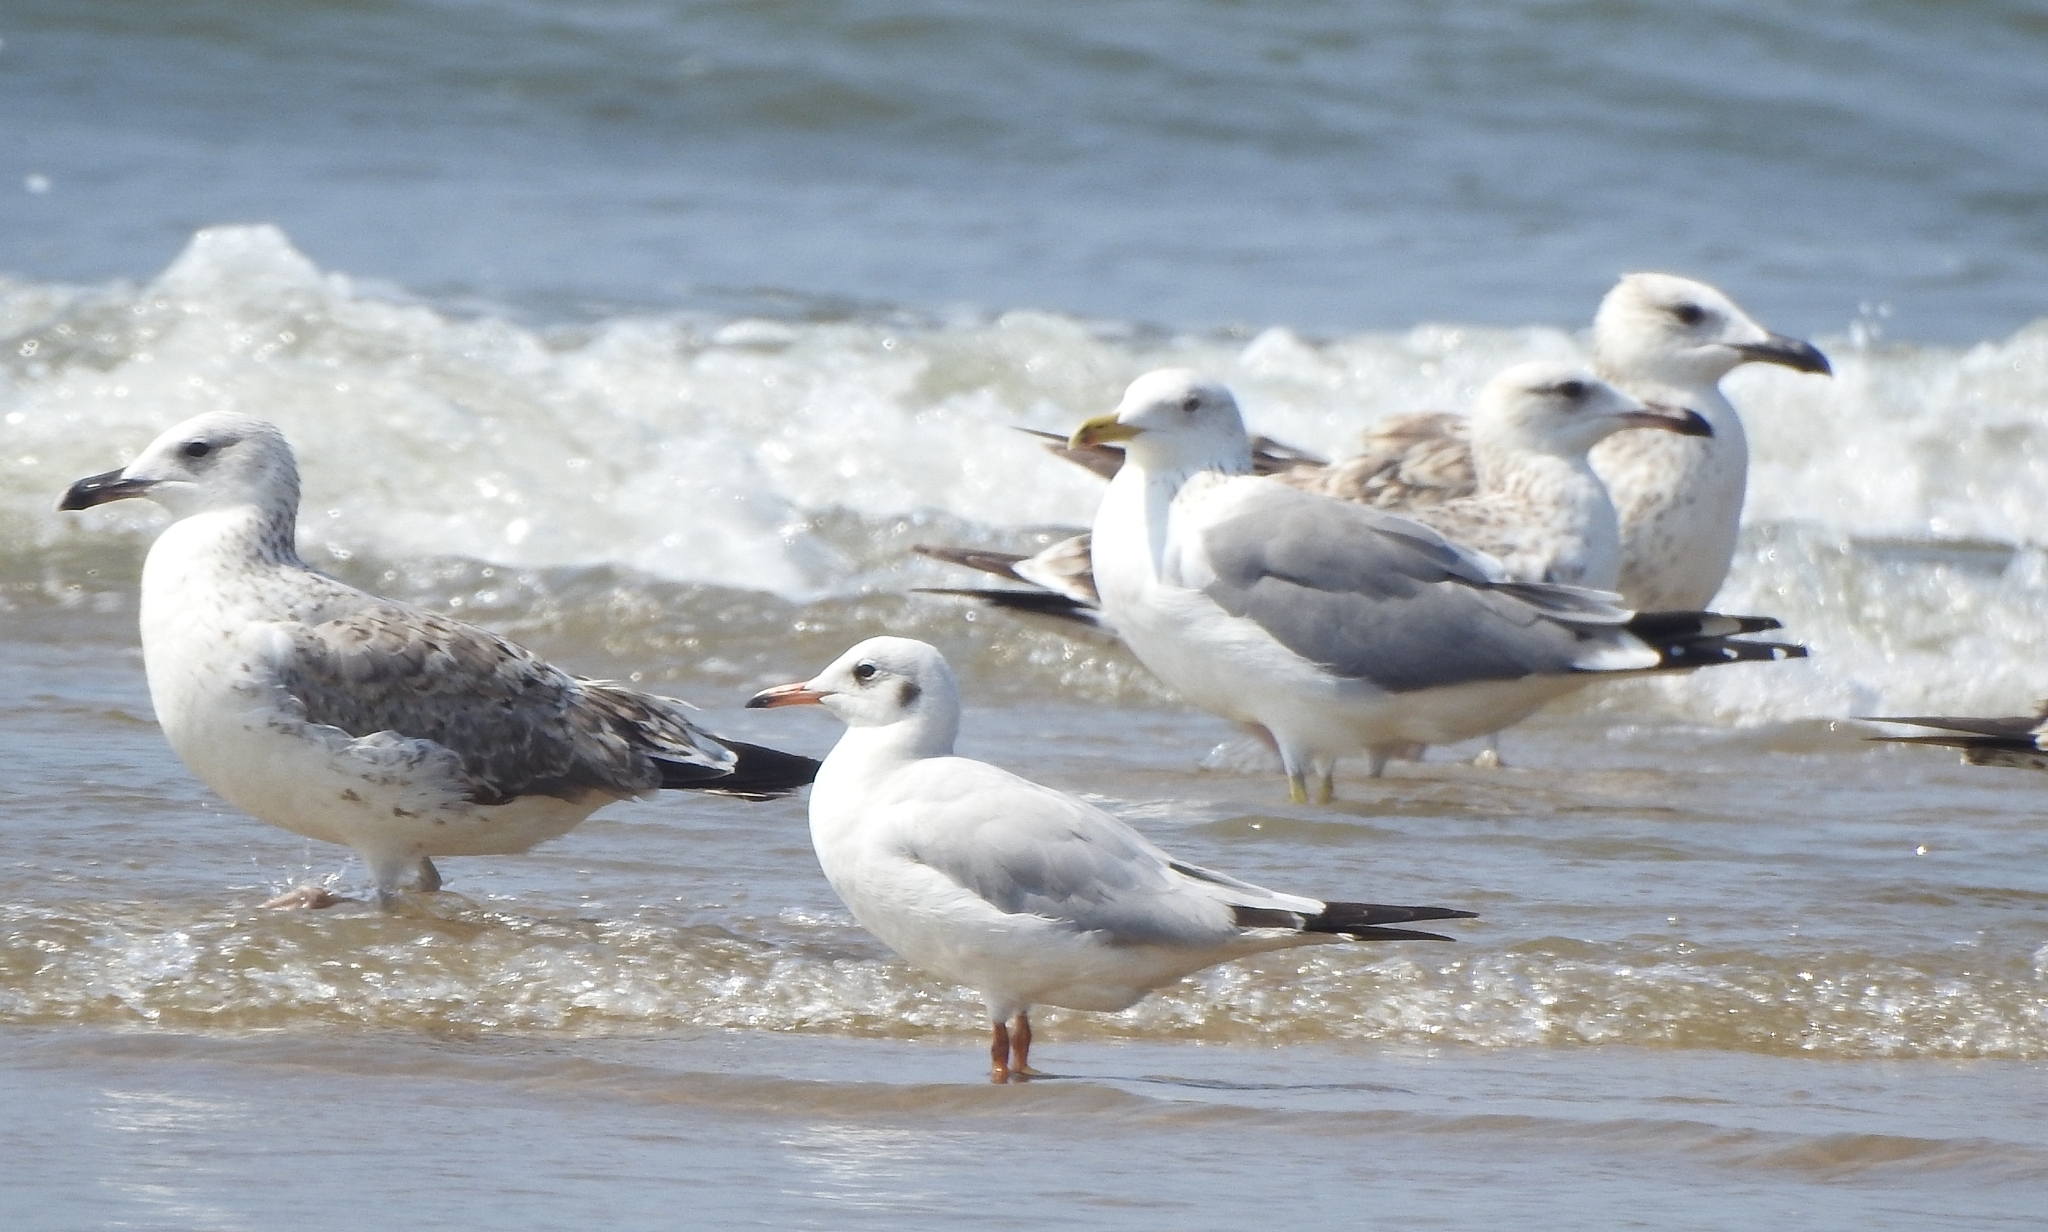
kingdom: Animalia
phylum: Chordata
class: Aves
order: Charadriiformes
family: Laridae
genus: Chroicocephalus
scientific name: Chroicocephalus brunnicephalus
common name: Brown-headed gull
